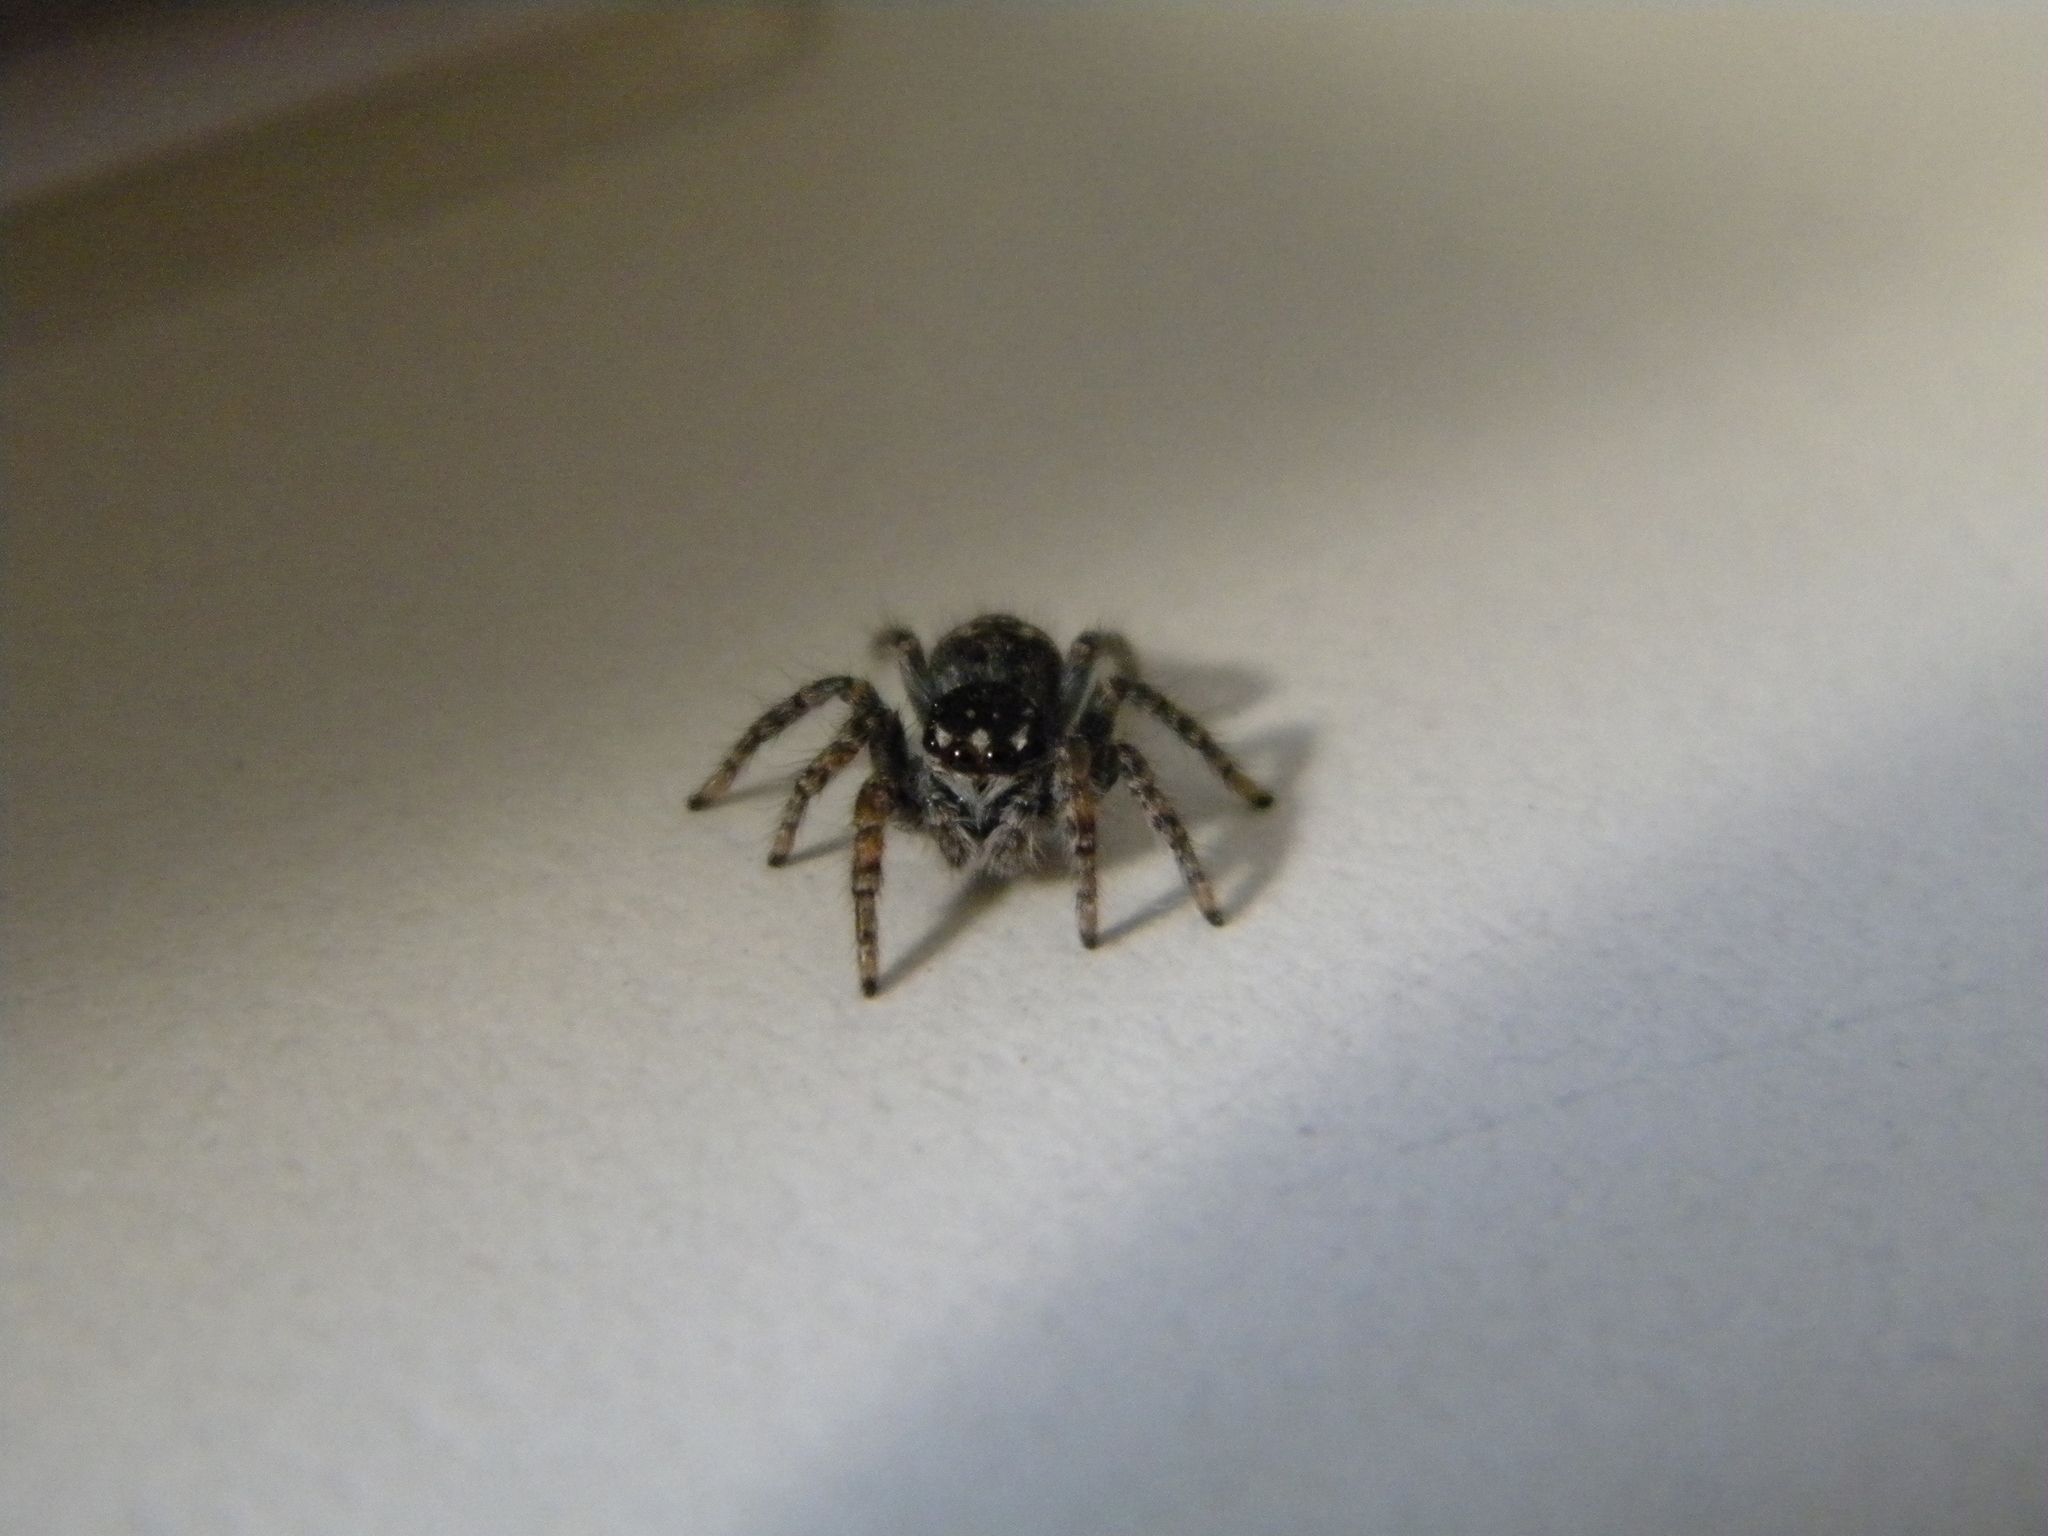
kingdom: Animalia
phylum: Arthropoda
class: Arachnida
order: Araneae
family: Salticidae
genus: Philaeus
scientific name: Philaeus chrysops
